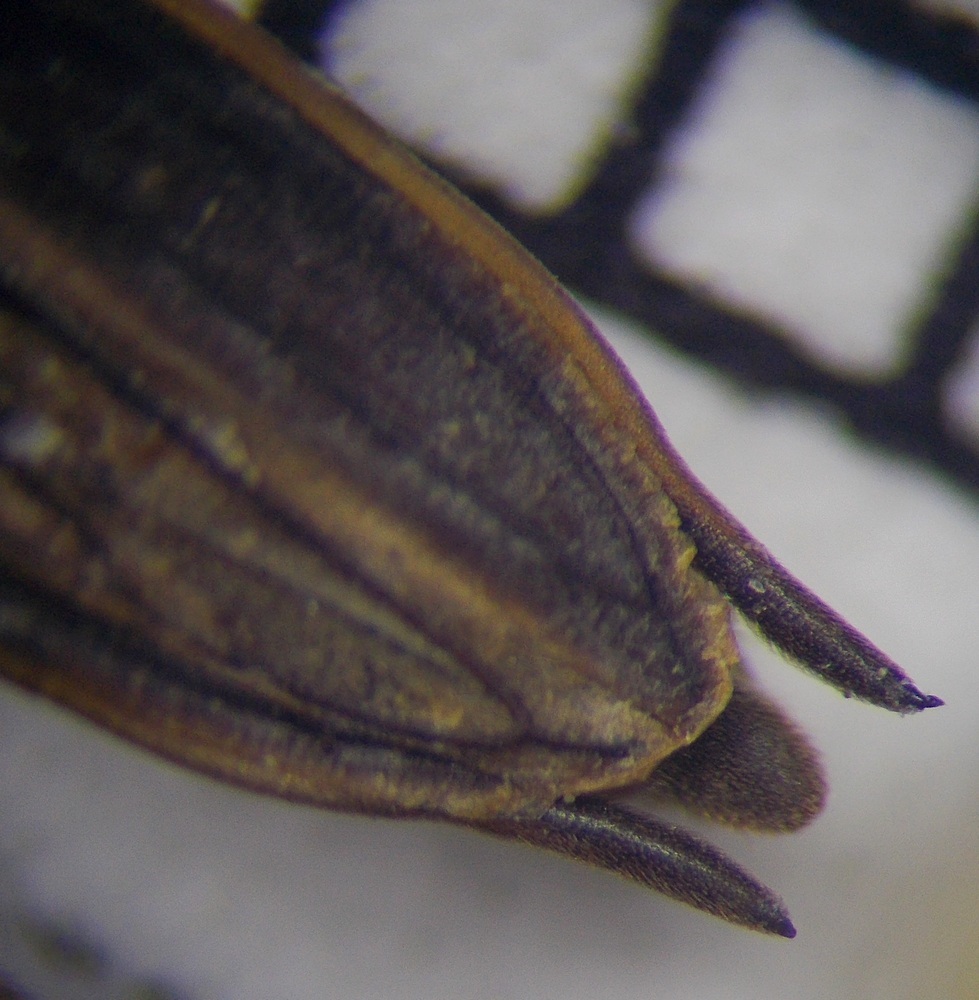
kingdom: Animalia
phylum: Arthropoda
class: Insecta
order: Hemiptera
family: Gerridae
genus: Aquarius
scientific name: Aquarius paludum
